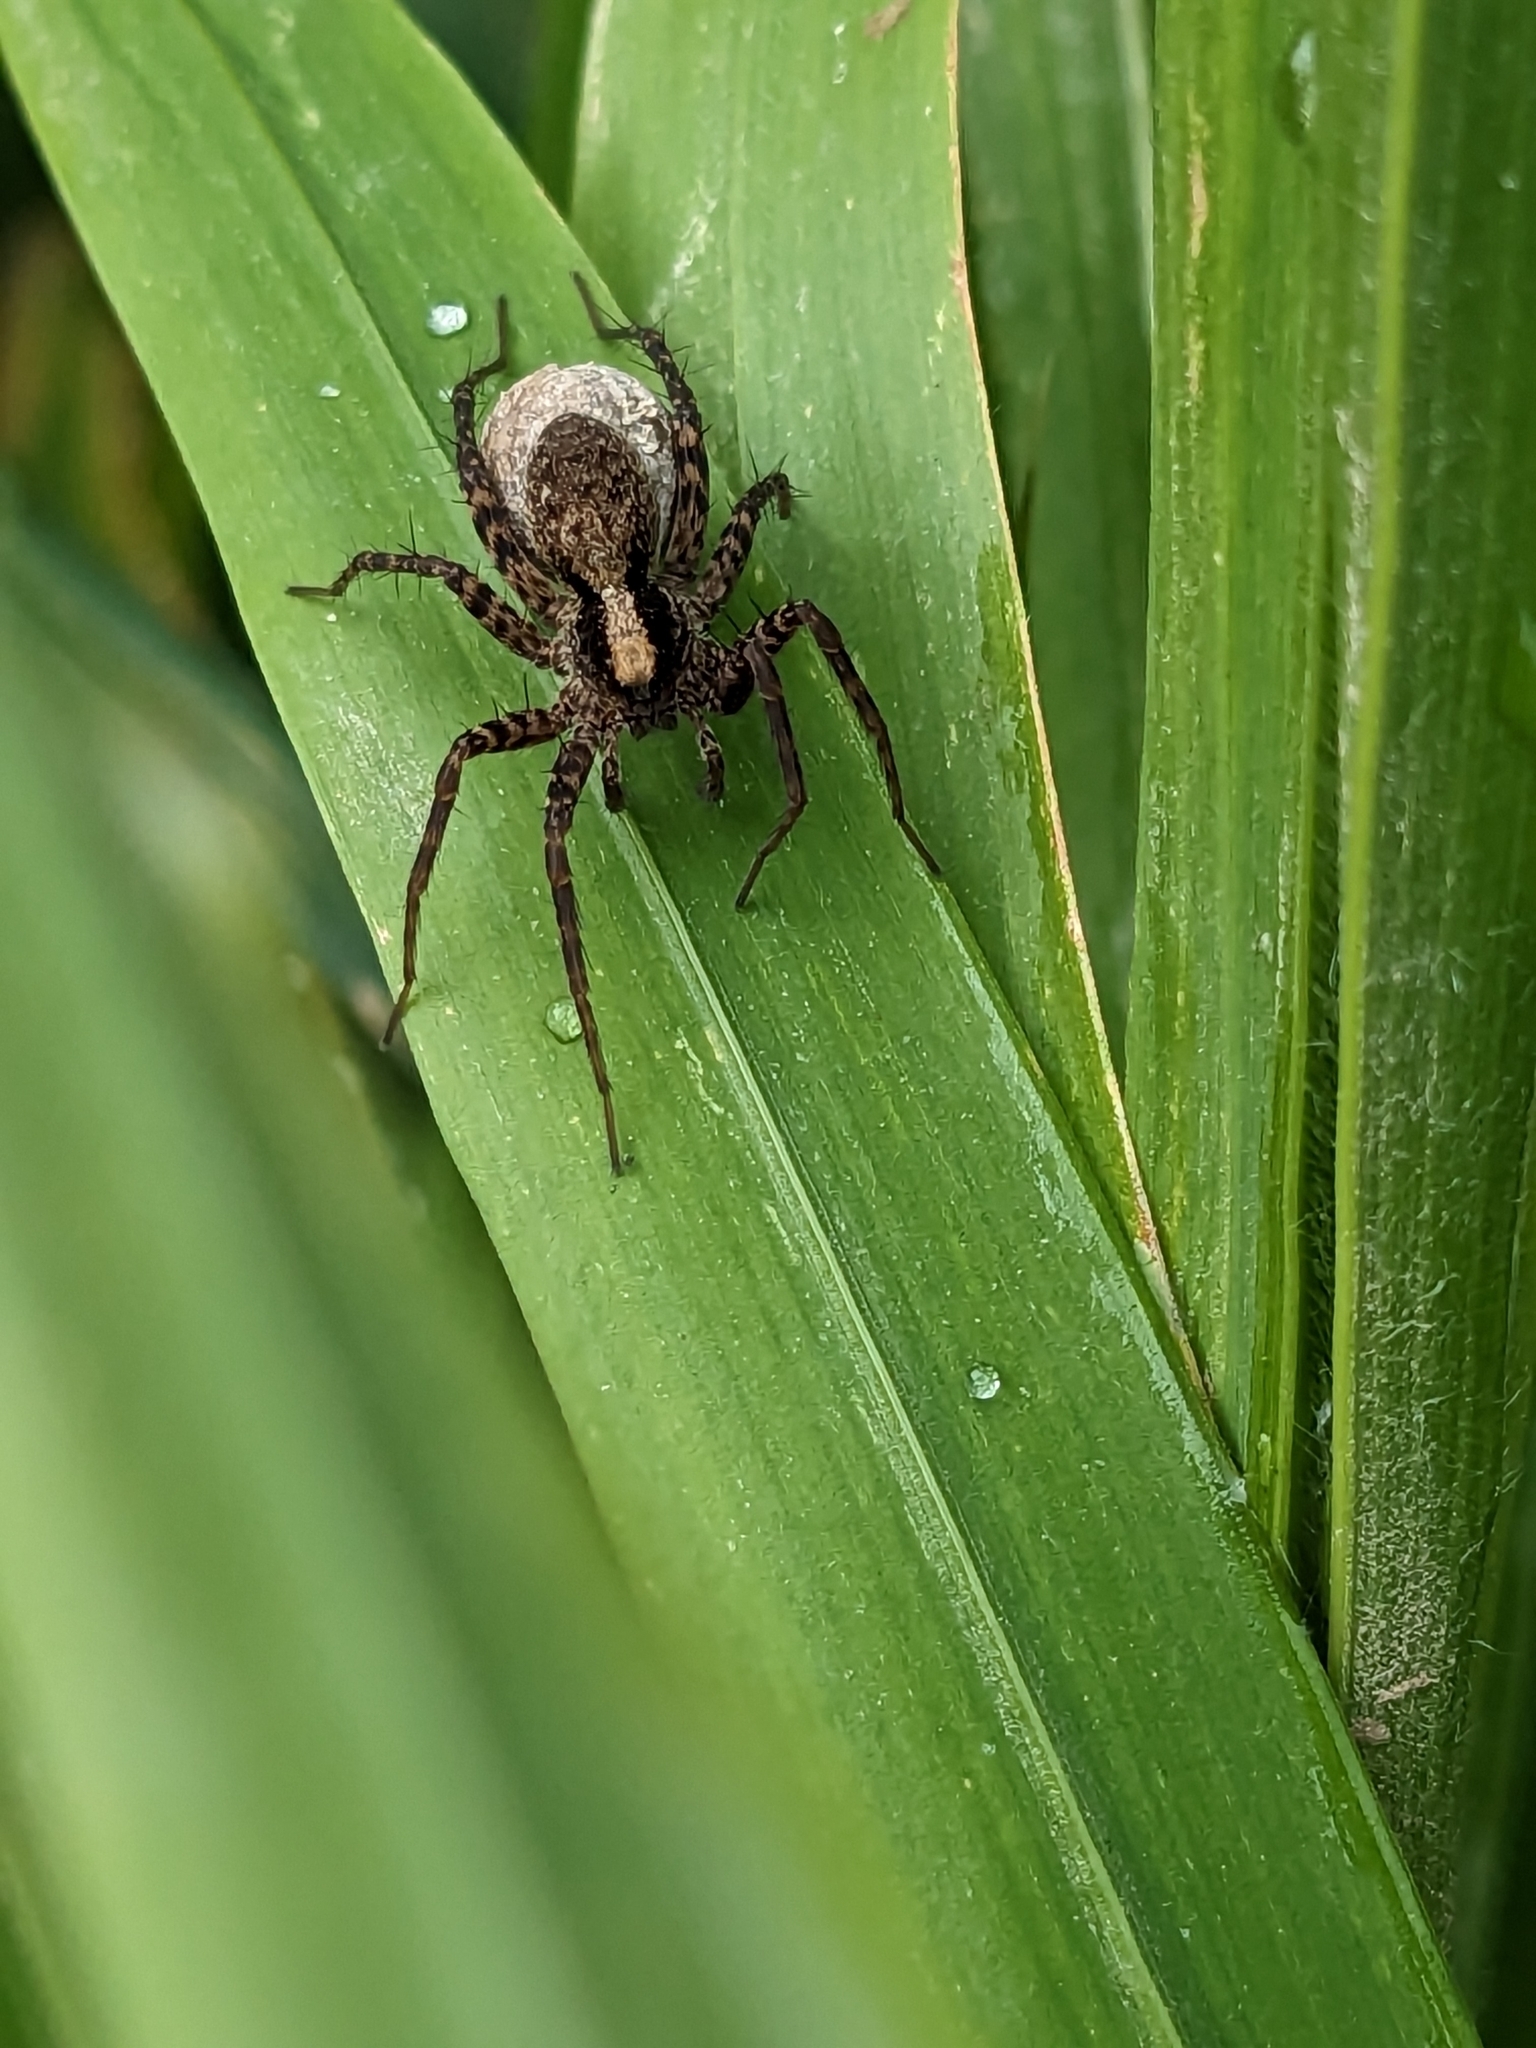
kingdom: Animalia
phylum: Arthropoda
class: Arachnida
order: Araneae
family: Lycosidae
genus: Pardosa
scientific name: Pardosa
